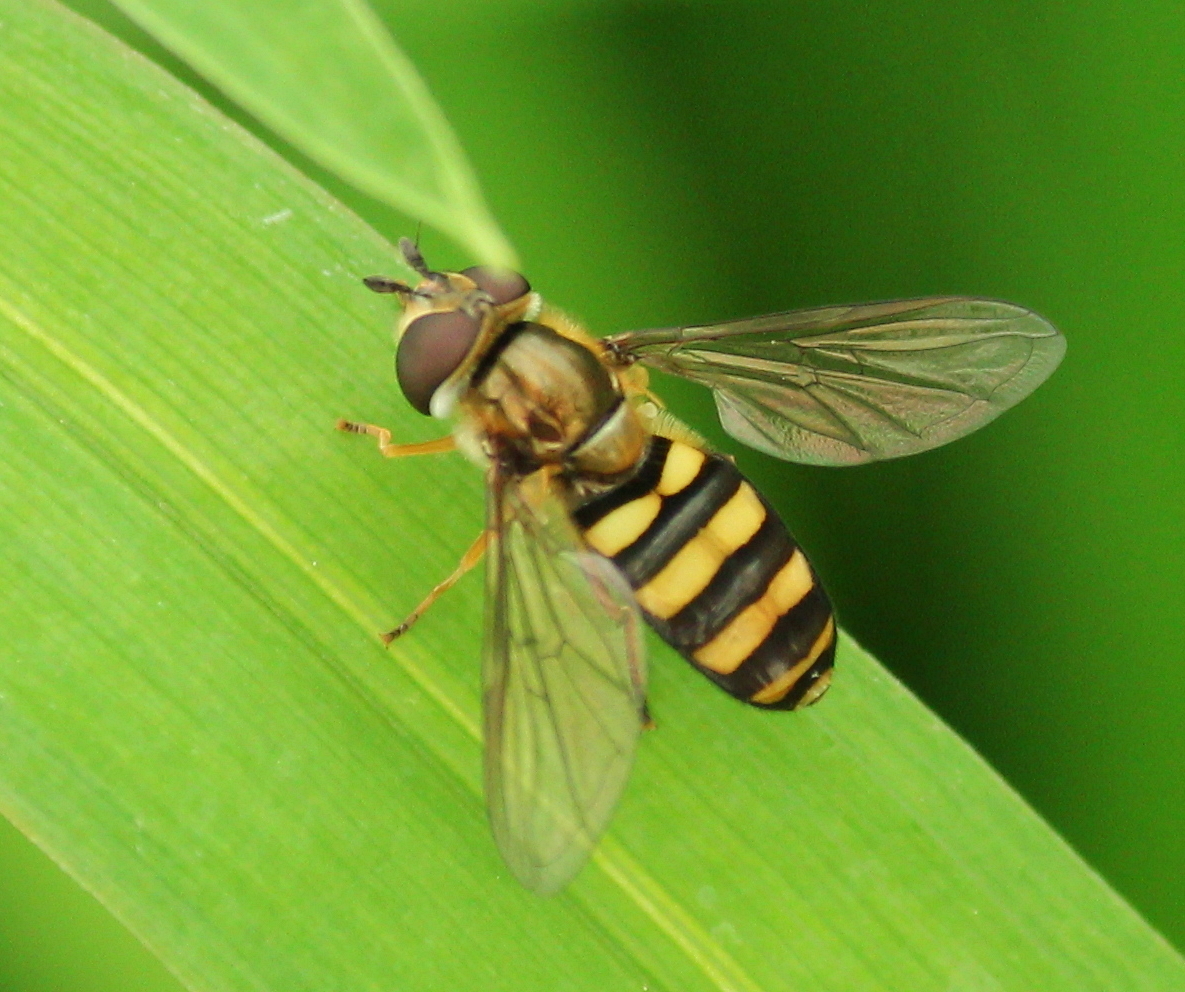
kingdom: Animalia
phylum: Arthropoda
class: Insecta
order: Diptera
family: Syrphidae
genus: Eupeodes
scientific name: Eupeodes
